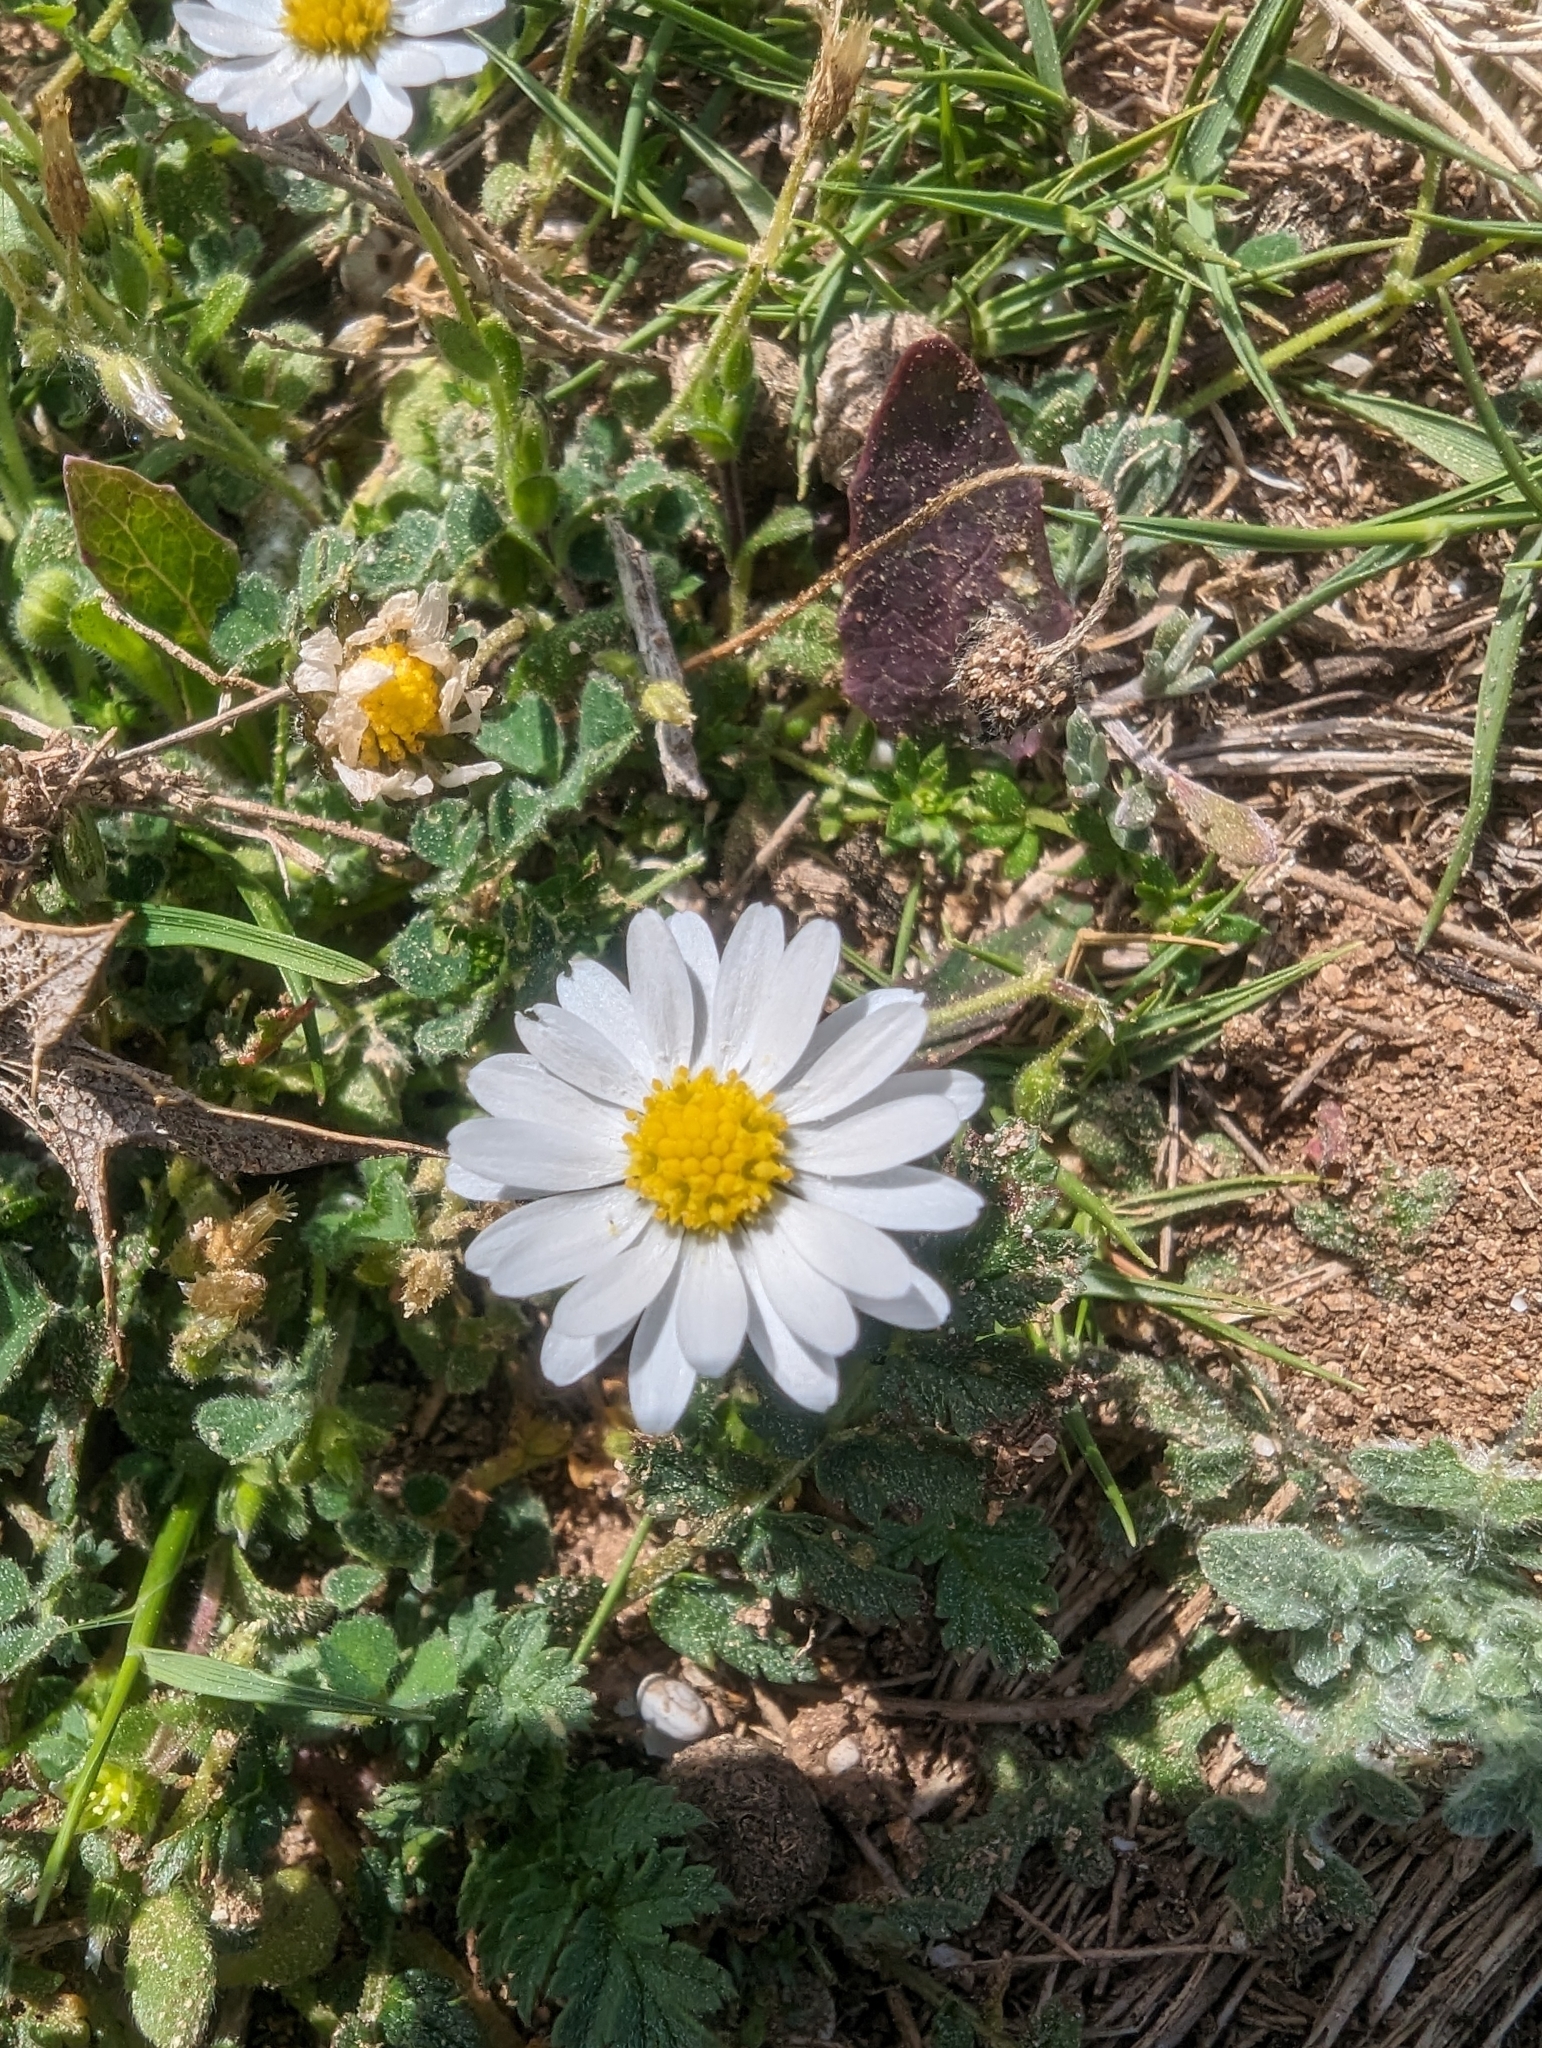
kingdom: Plantae
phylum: Tracheophyta
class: Magnoliopsida
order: Asterales
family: Asteraceae
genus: Bellis
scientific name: Bellis annua
